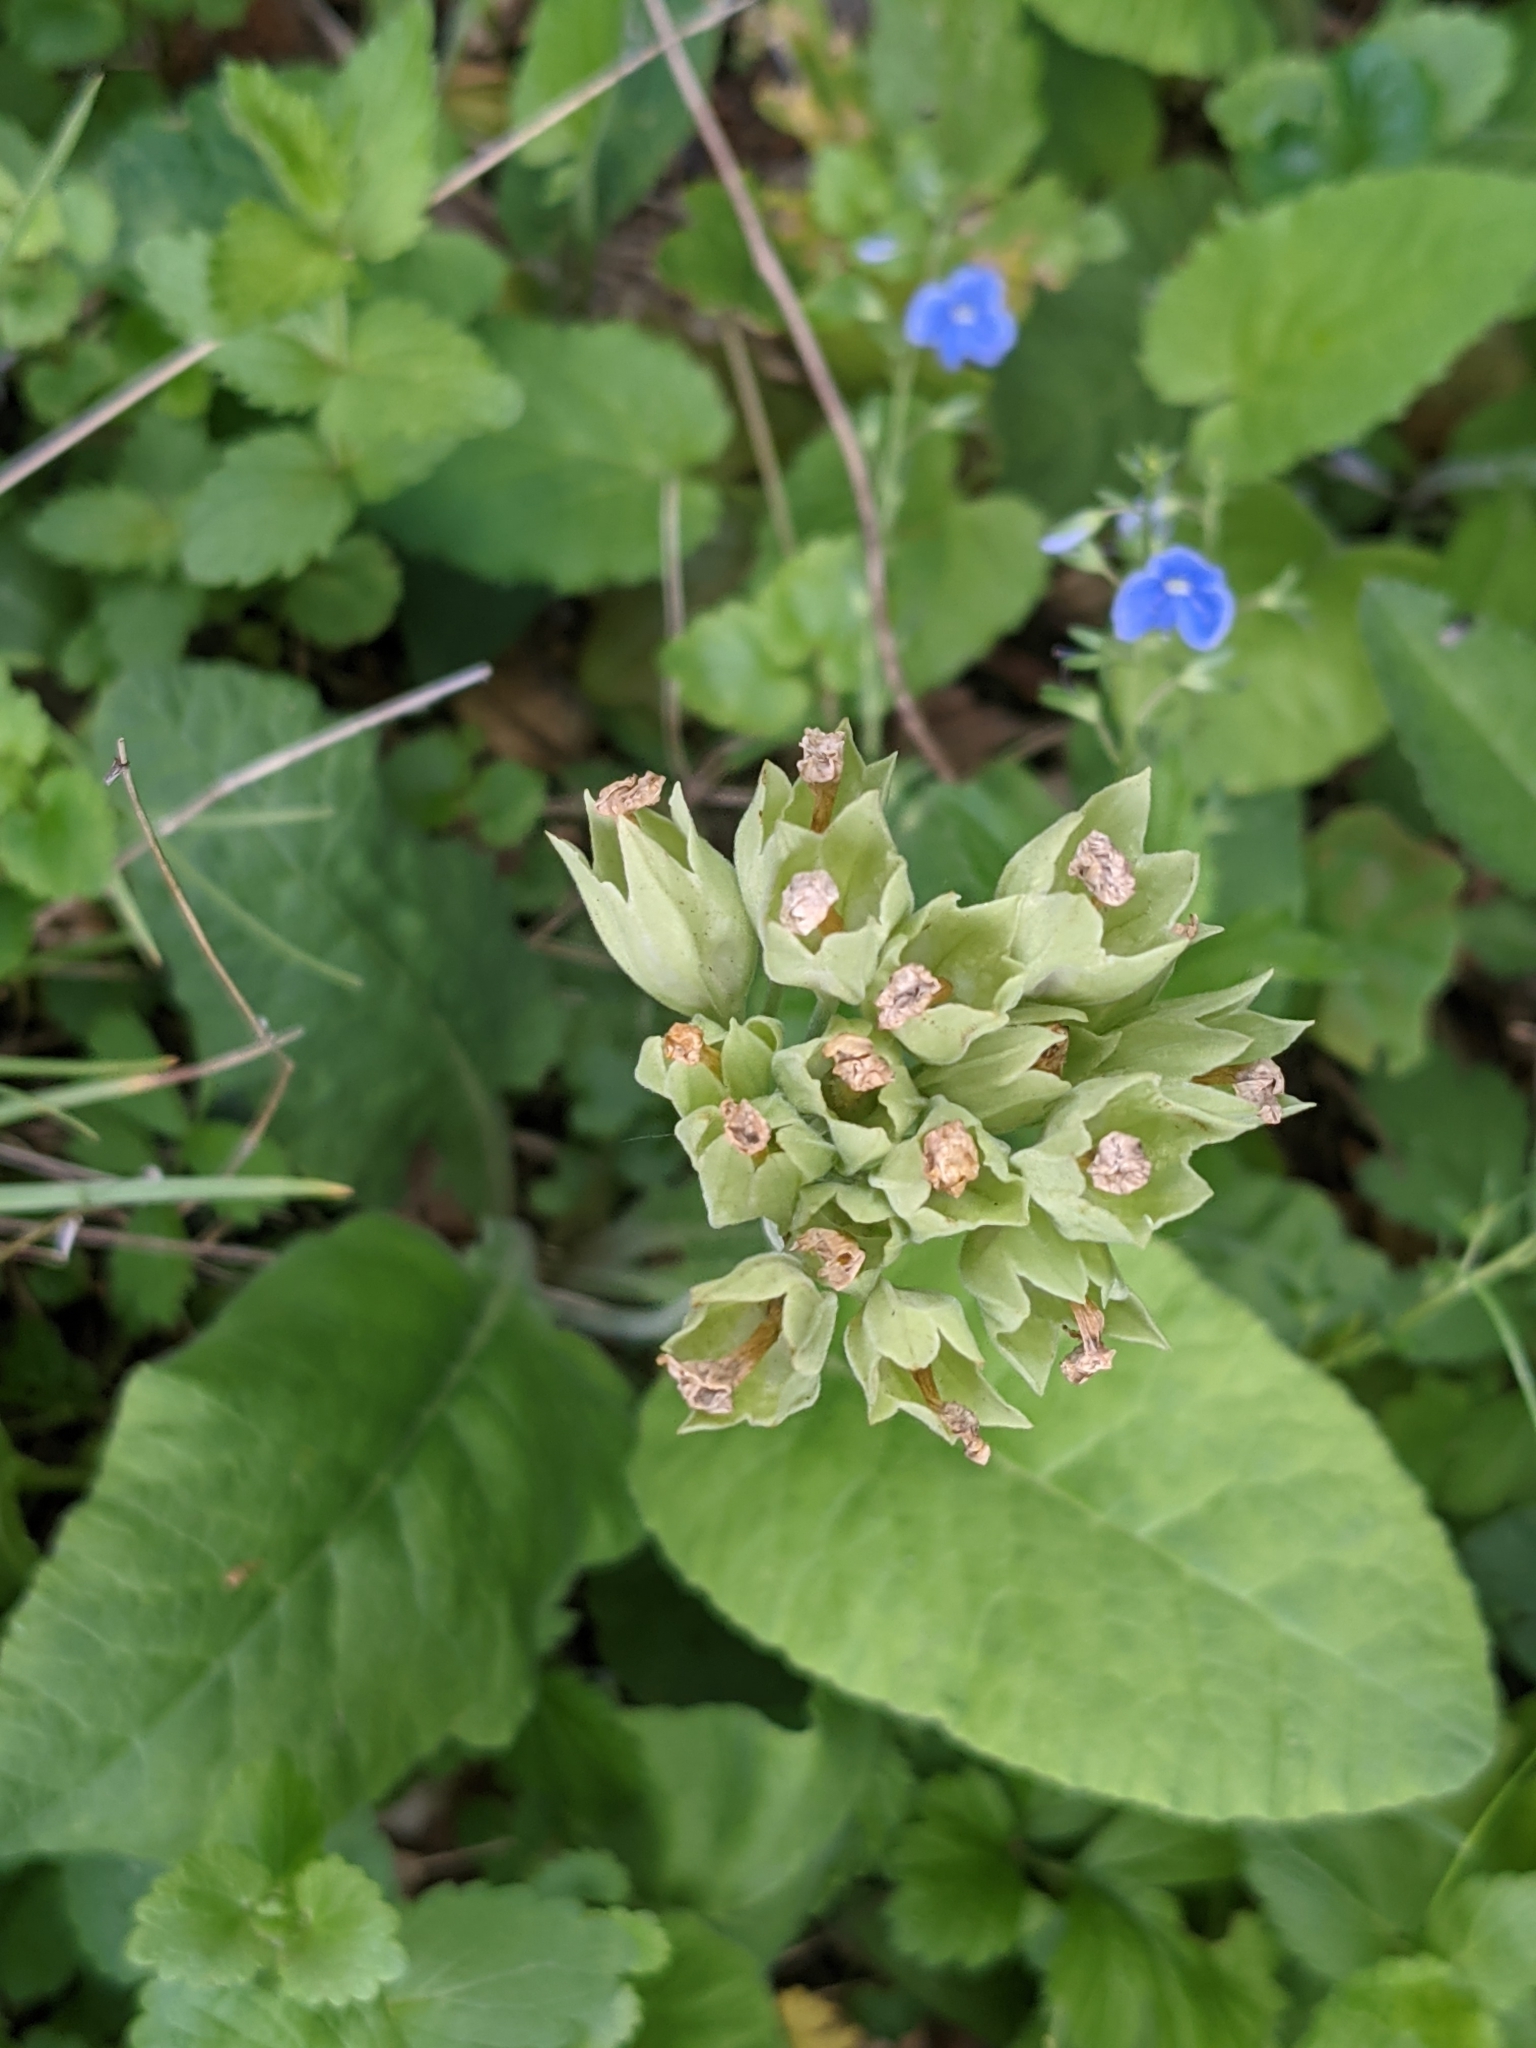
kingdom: Plantae
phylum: Tracheophyta
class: Magnoliopsida
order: Ericales
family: Primulaceae
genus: Primula
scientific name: Primula veris
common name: Cowslip
